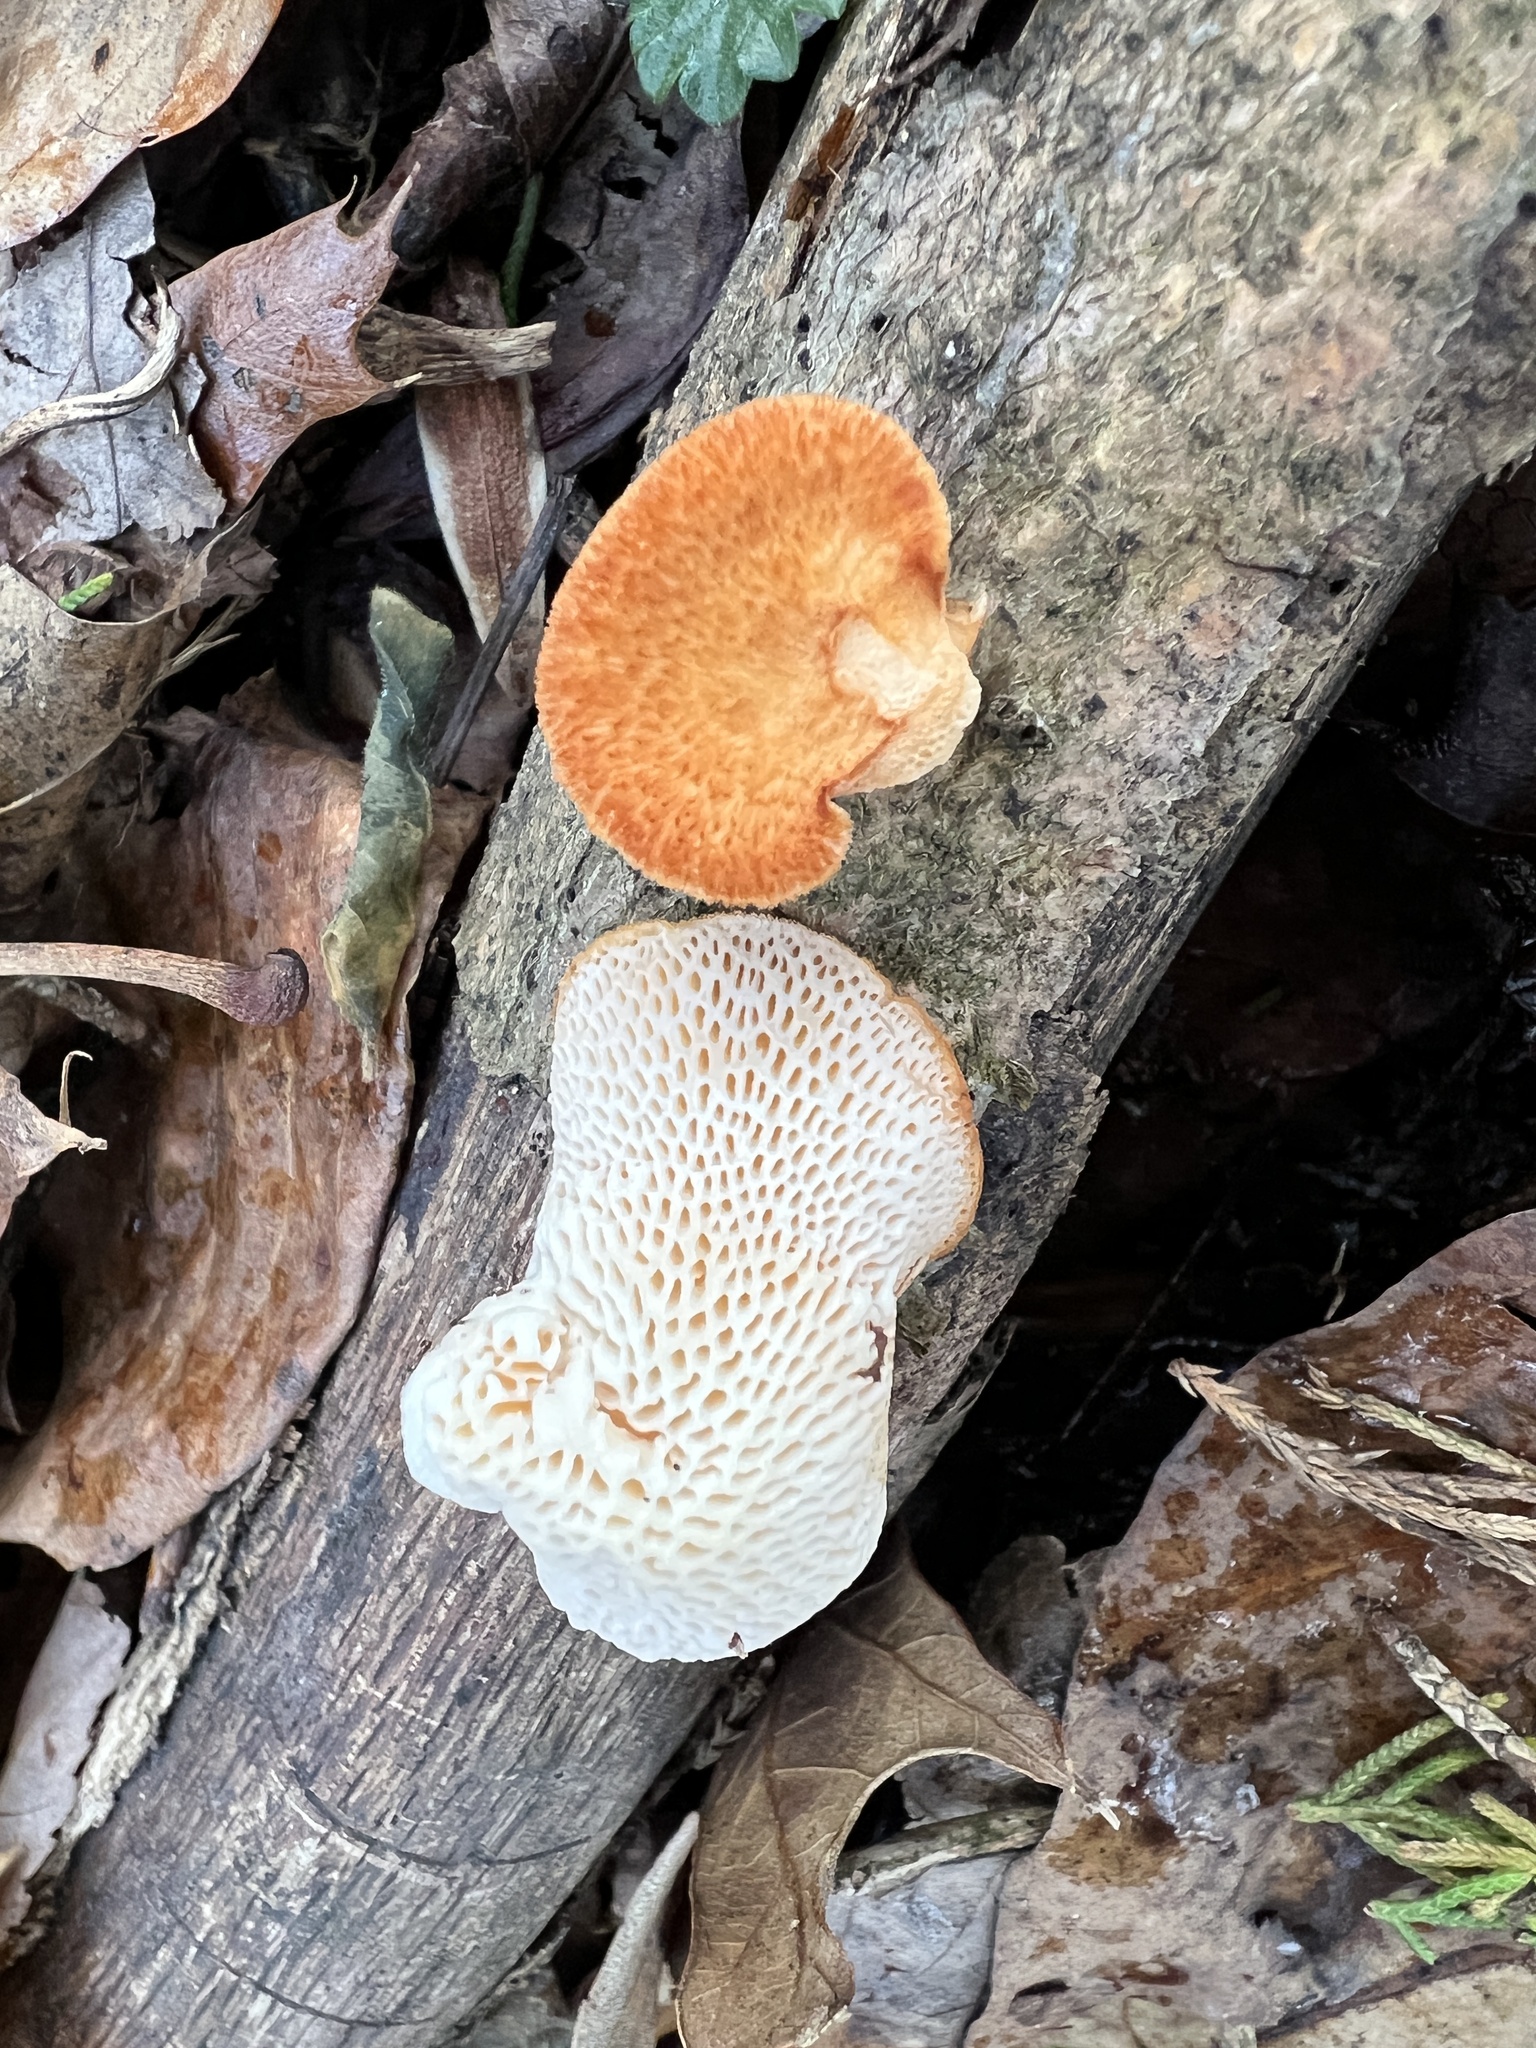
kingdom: Fungi
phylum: Basidiomycota
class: Agaricomycetes
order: Polyporales
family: Polyporaceae
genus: Neofavolus
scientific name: Neofavolus alveolaris
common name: Hexagonal-pored polypore
